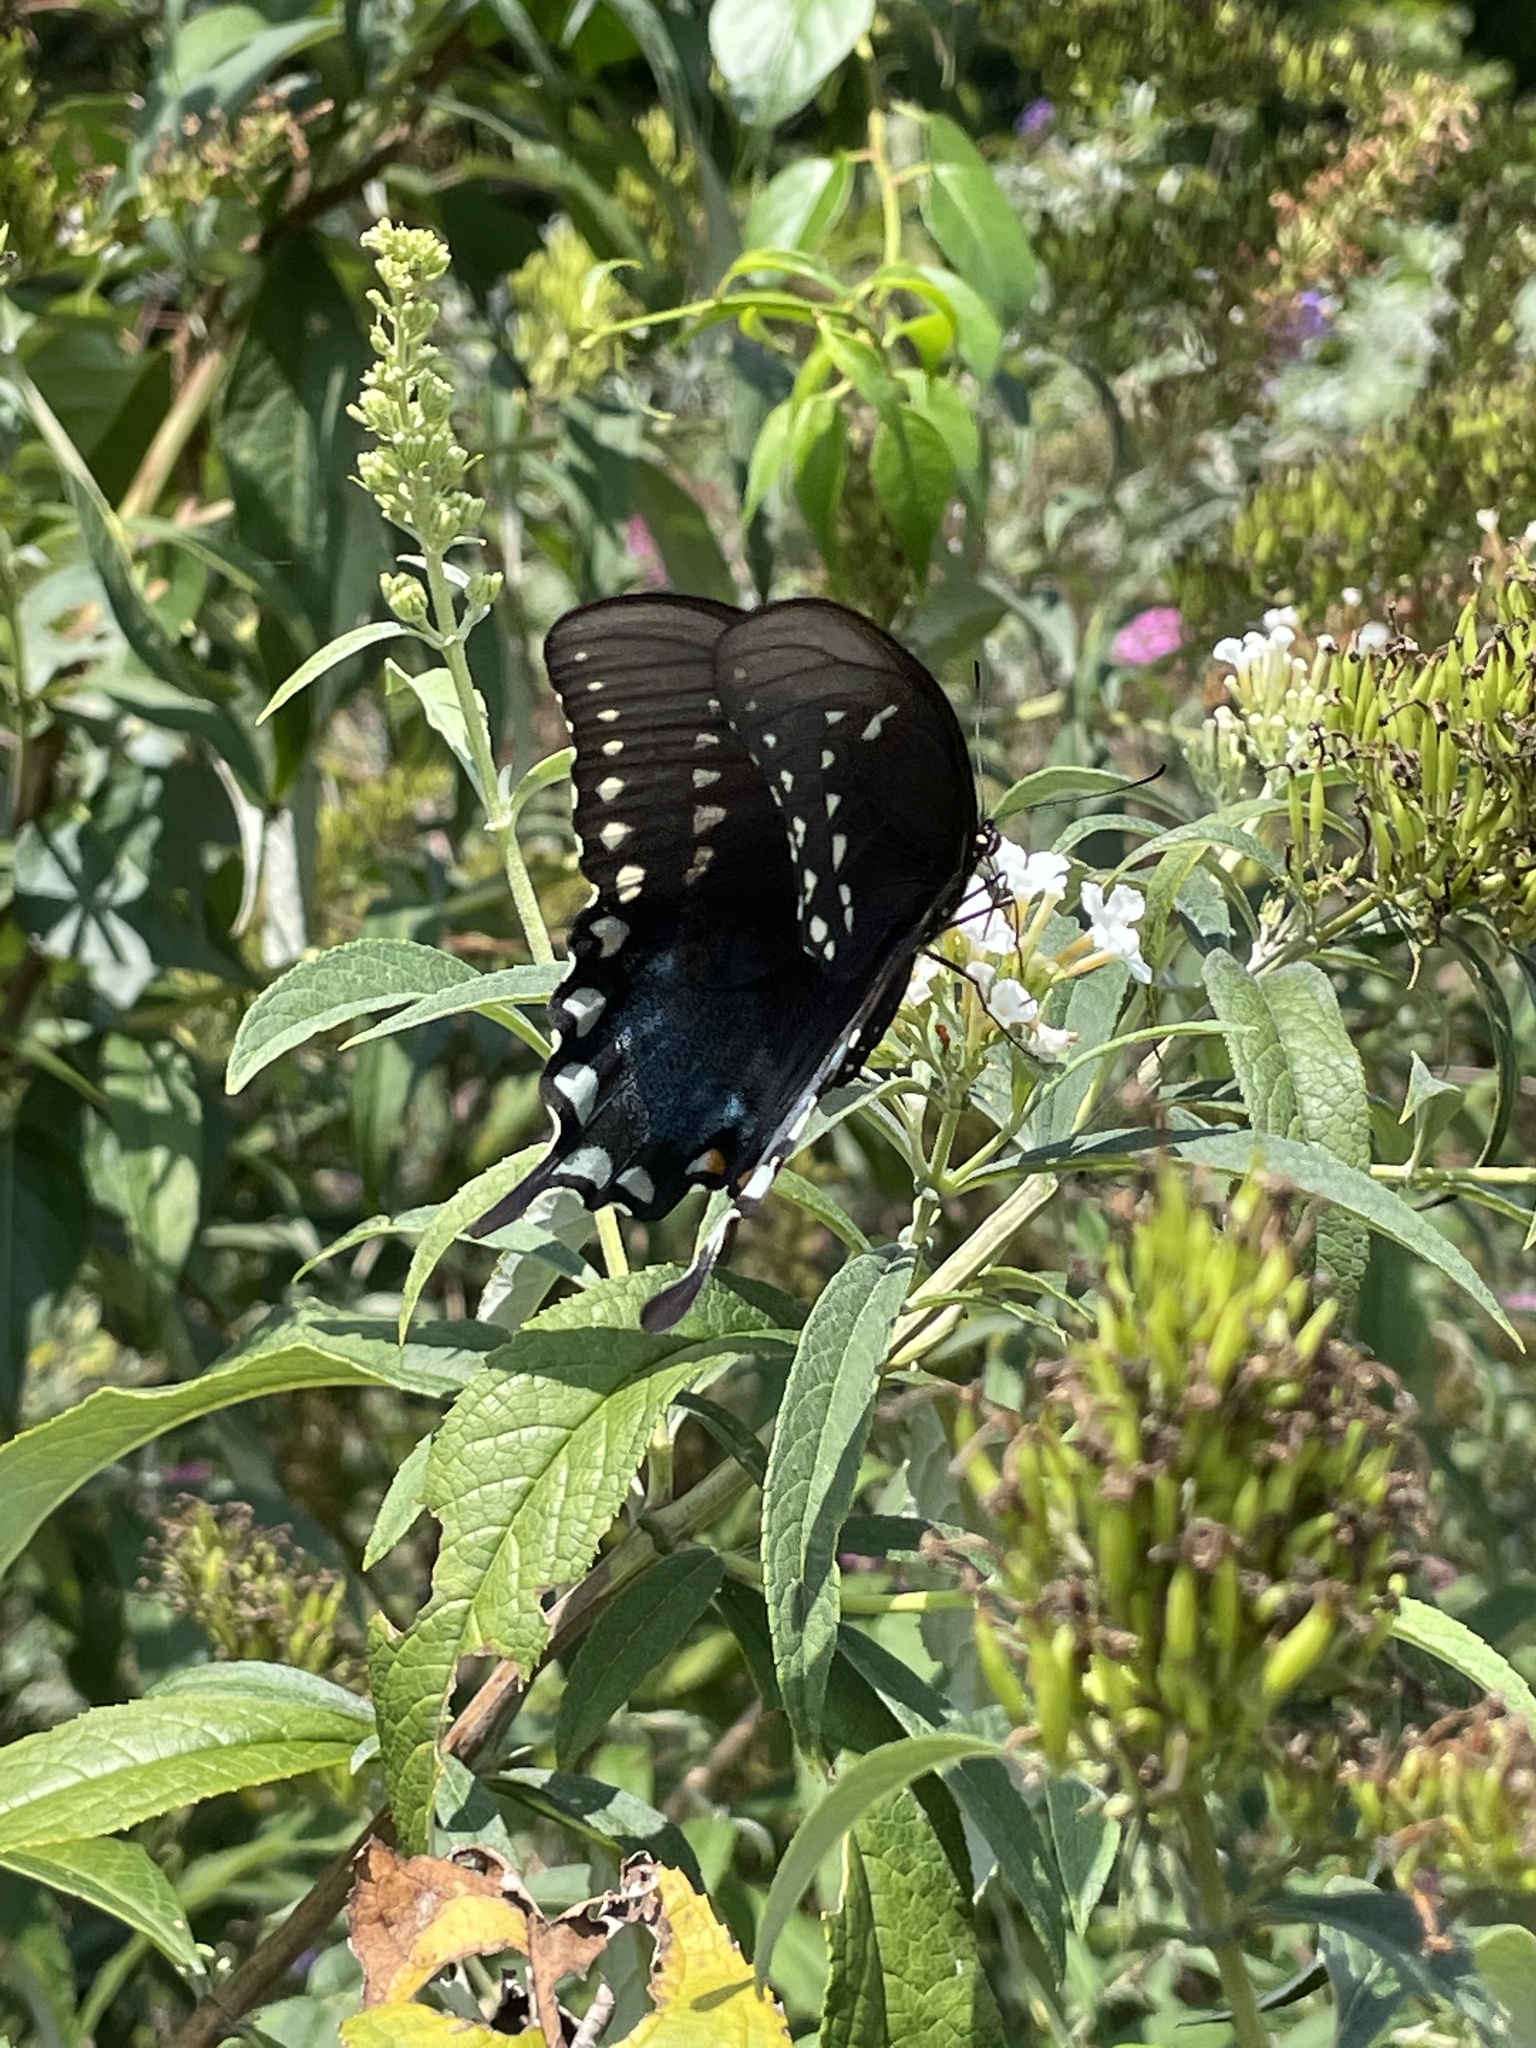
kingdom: Animalia
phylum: Arthropoda
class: Insecta
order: Lepidoptera
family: Papilionidae
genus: Papilio
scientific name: Papilio troilus
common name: Spicebush swallowtail
